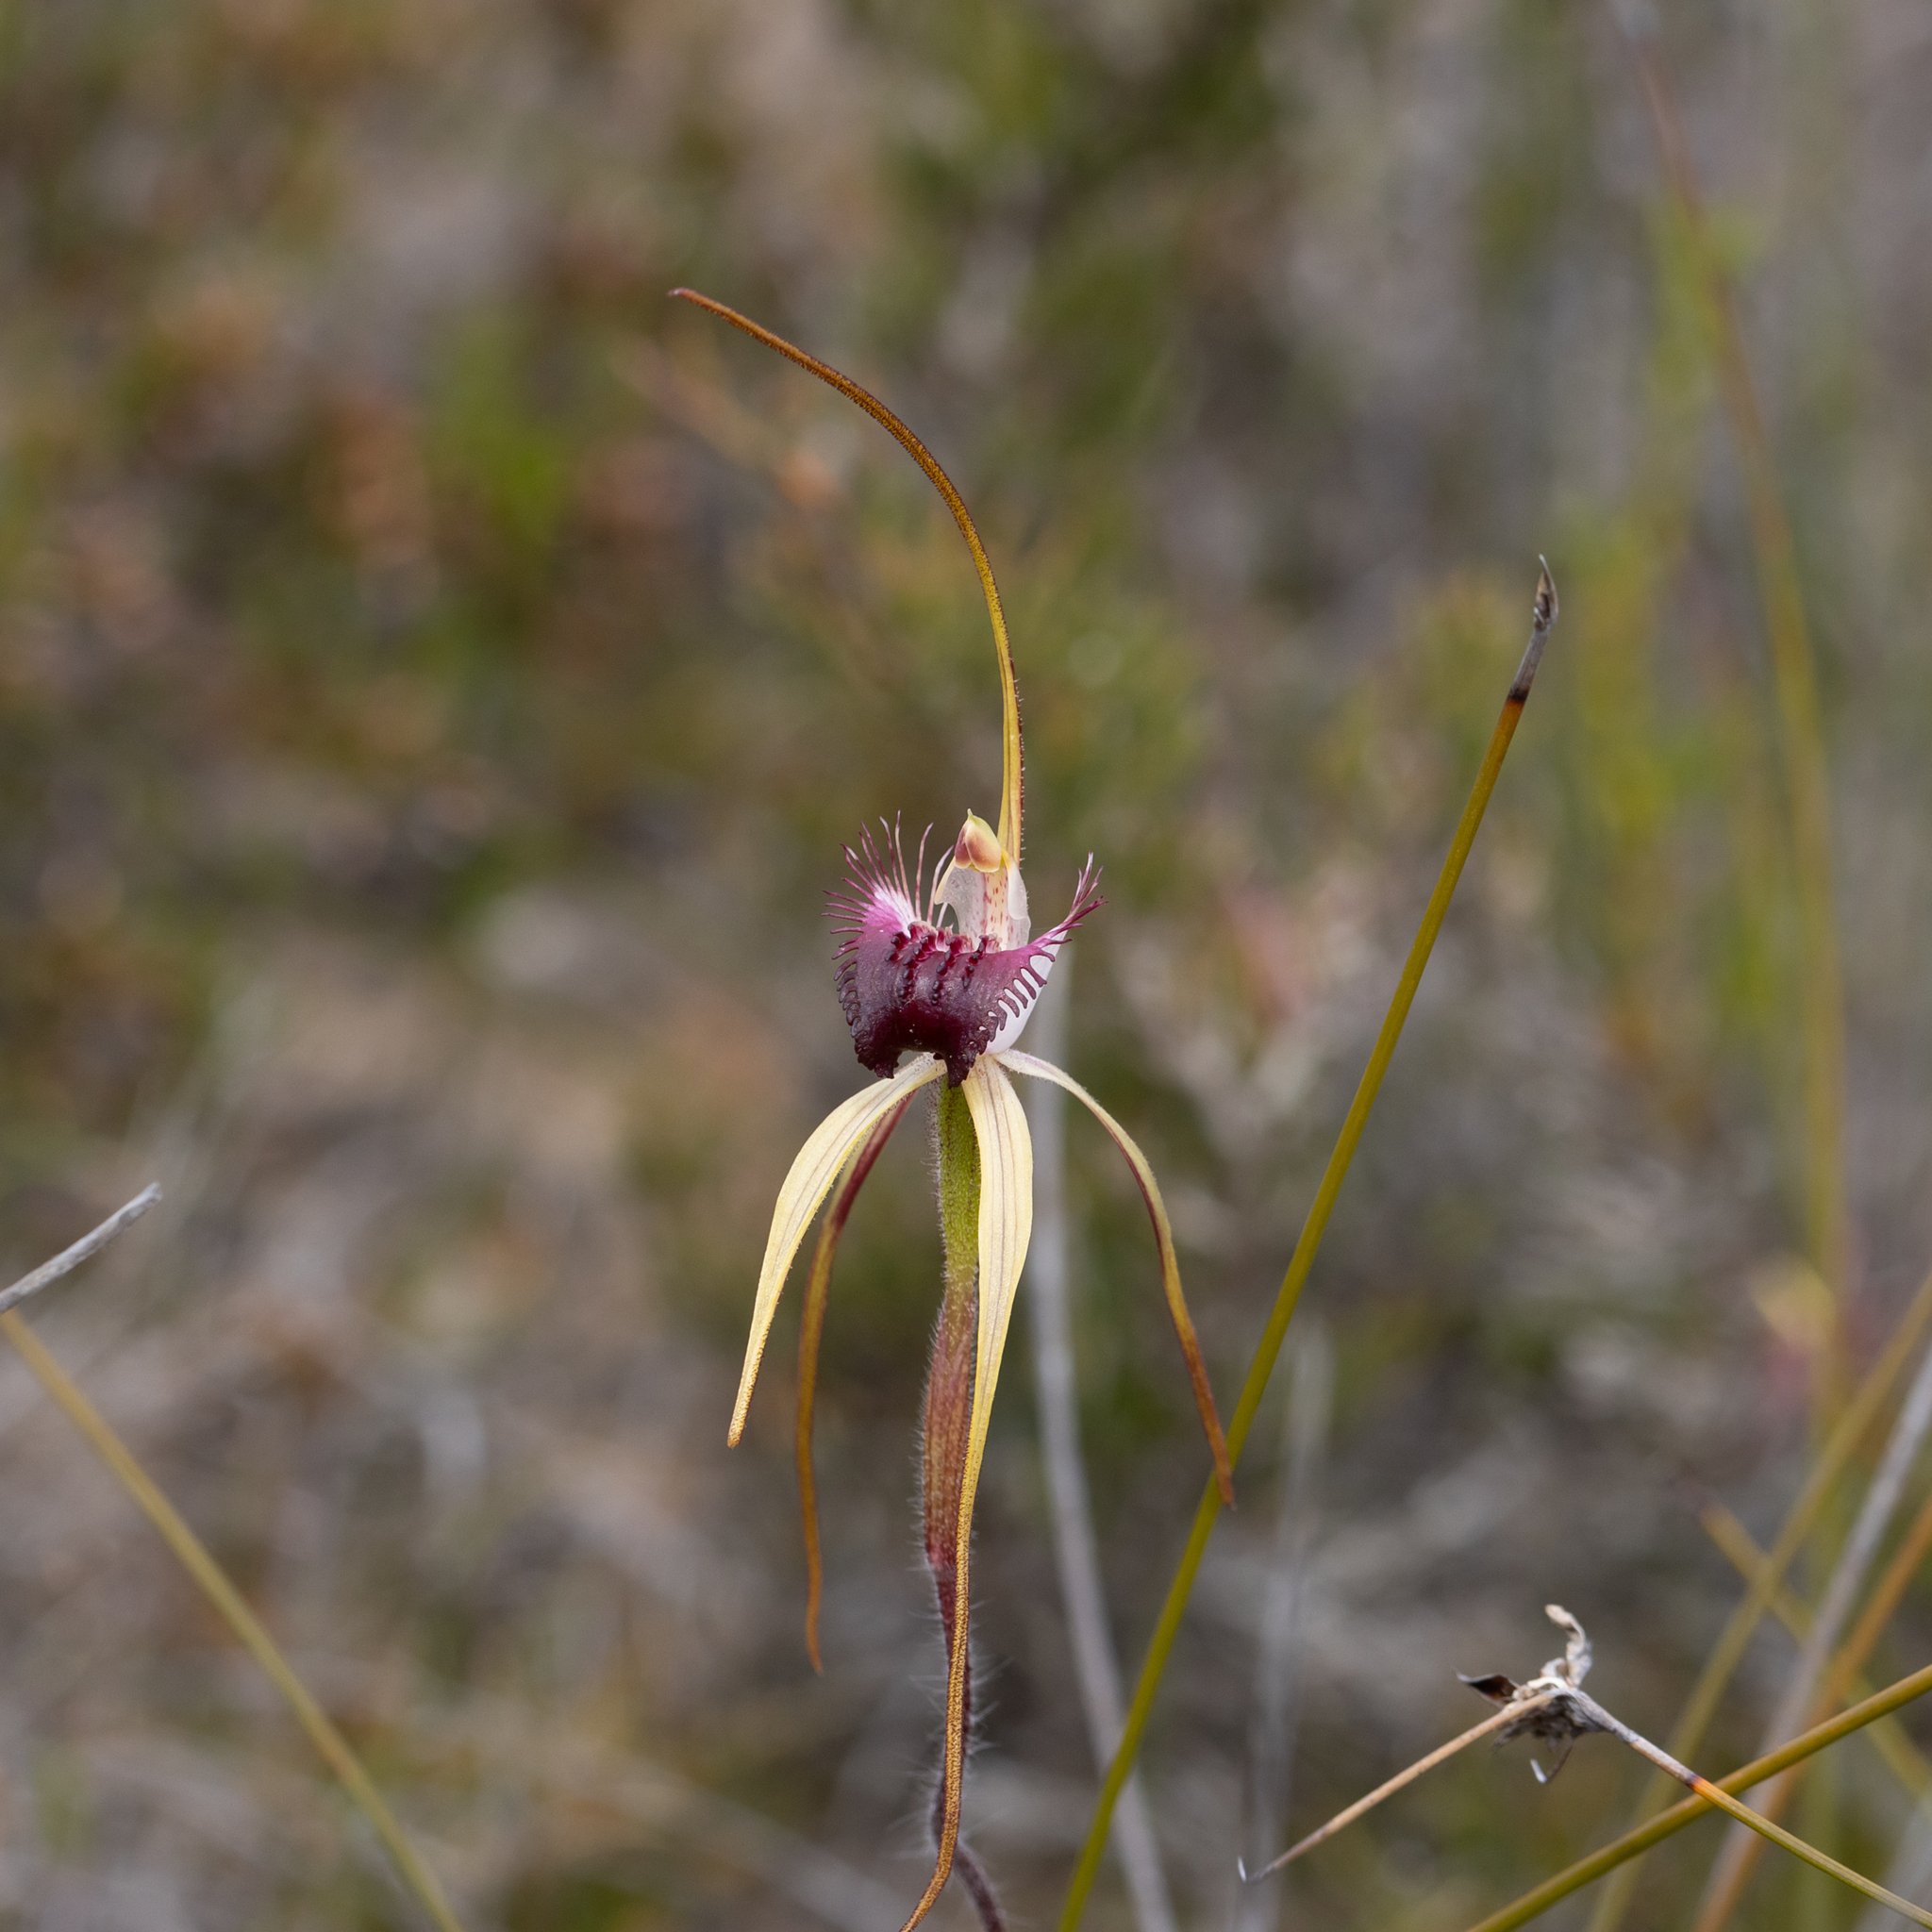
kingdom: Plantae
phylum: Tracheophyta
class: Liliopsida
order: Asparagales
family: Orchidaceae
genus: Caladenia
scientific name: Caladenia heberleana
